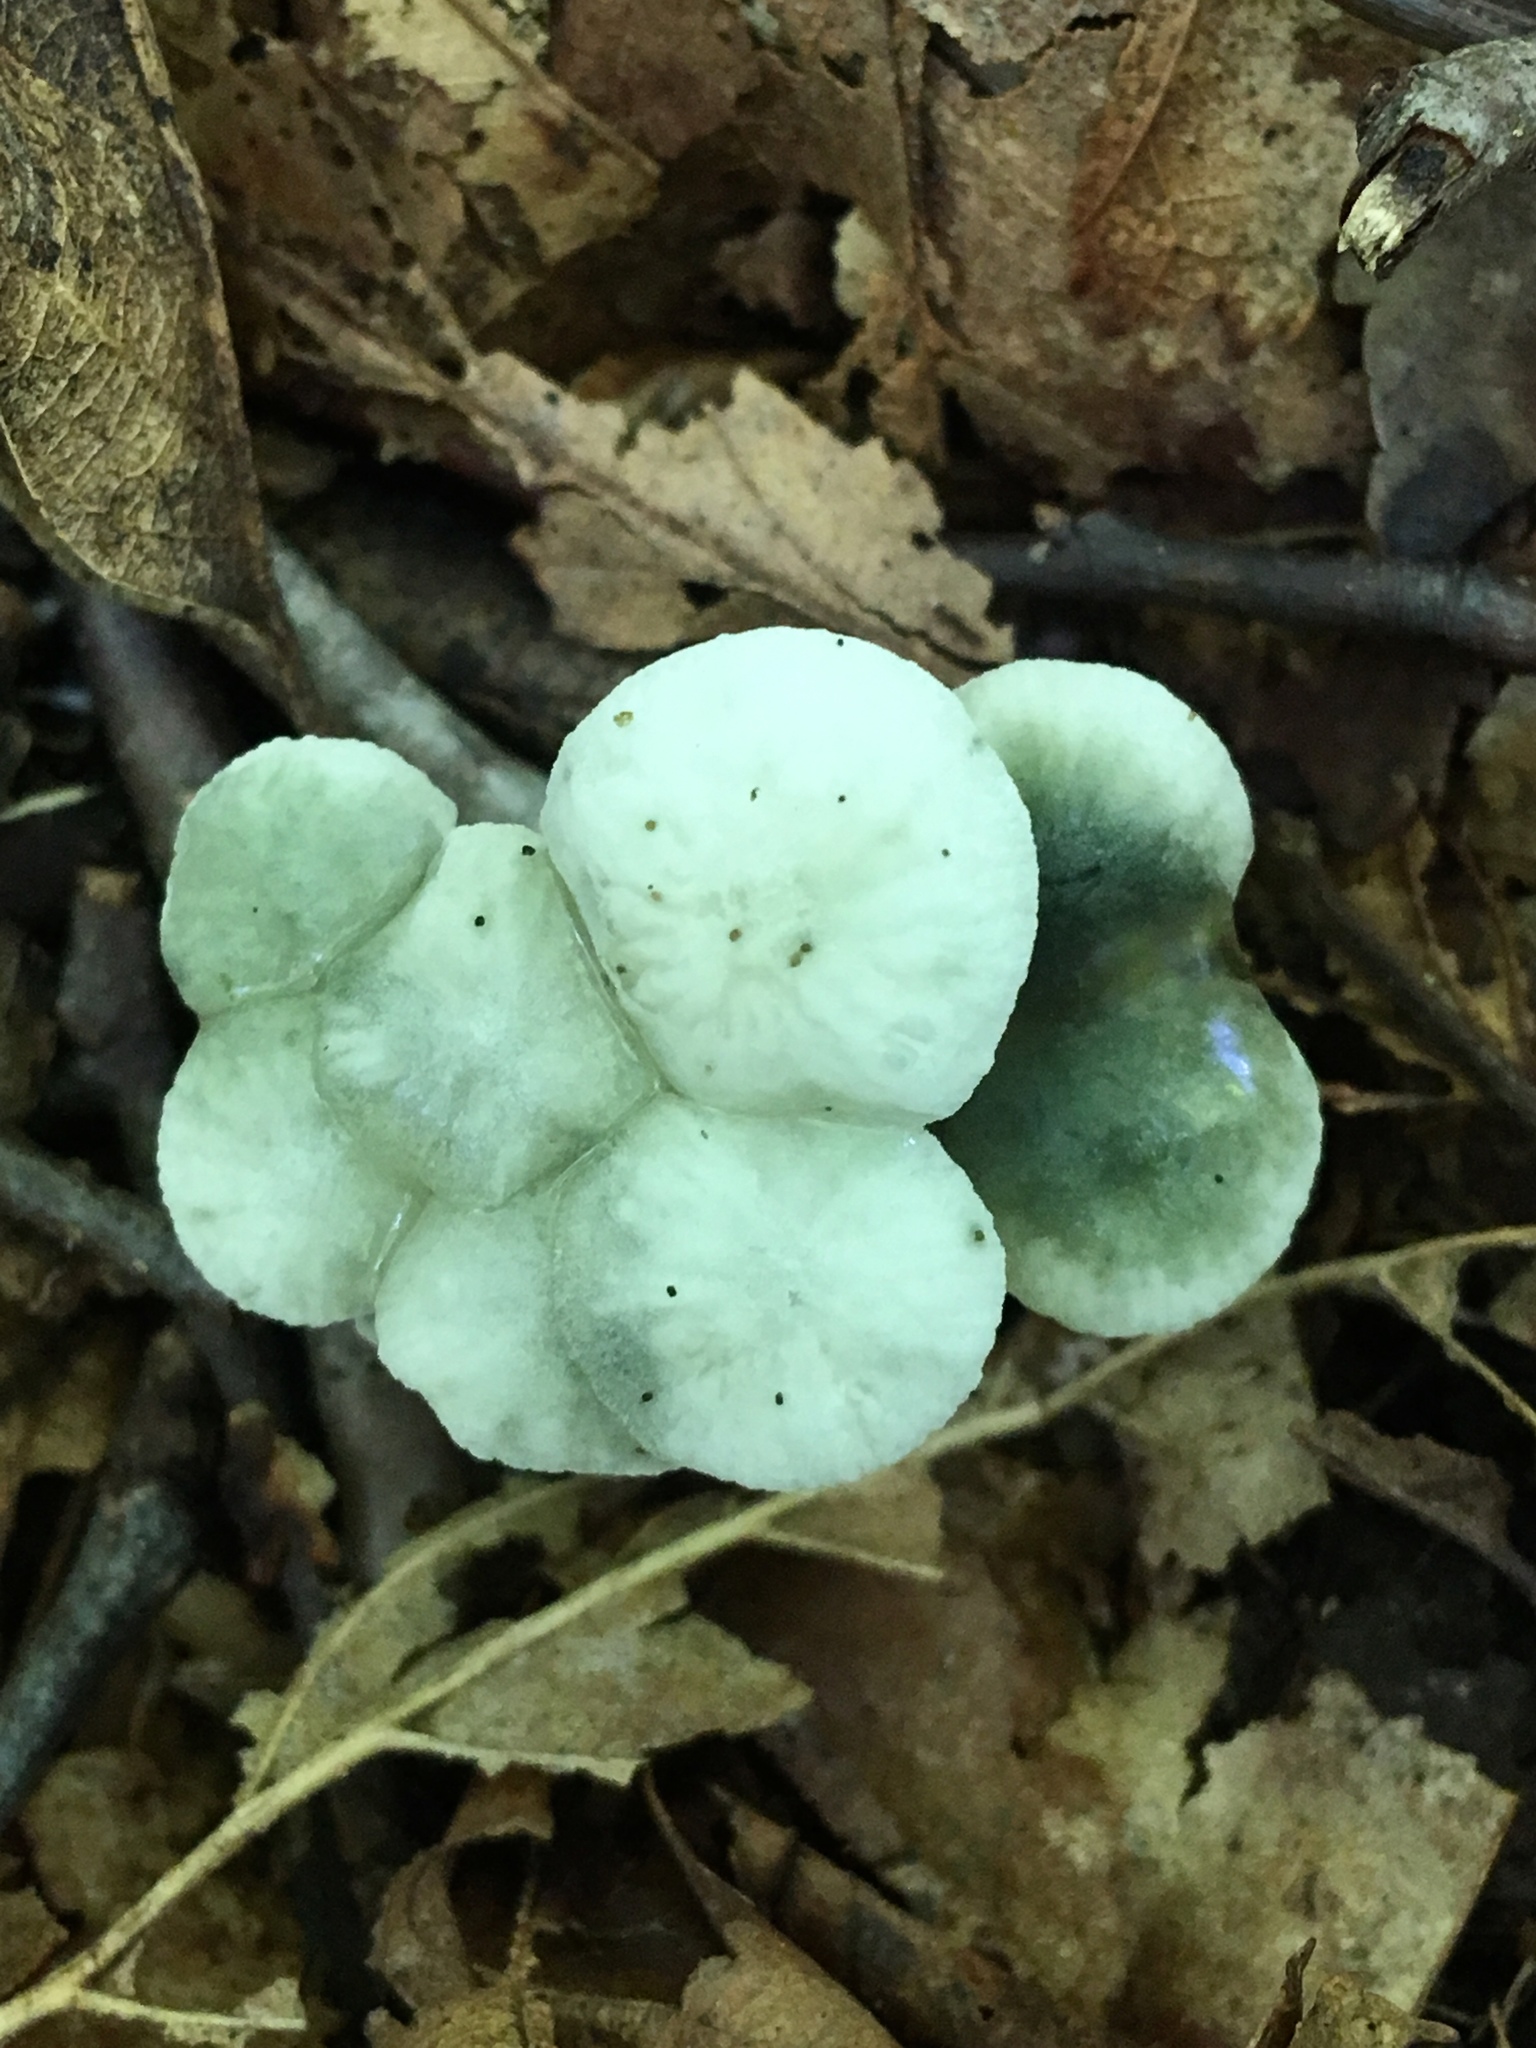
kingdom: Fungi
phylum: Basidiomycota
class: Agaricomycetes
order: Agaricales
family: Marasmiaceae
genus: Tetrapyrgos
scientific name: Tetrapyrgos nigripes
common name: Black-stalked marasmius
